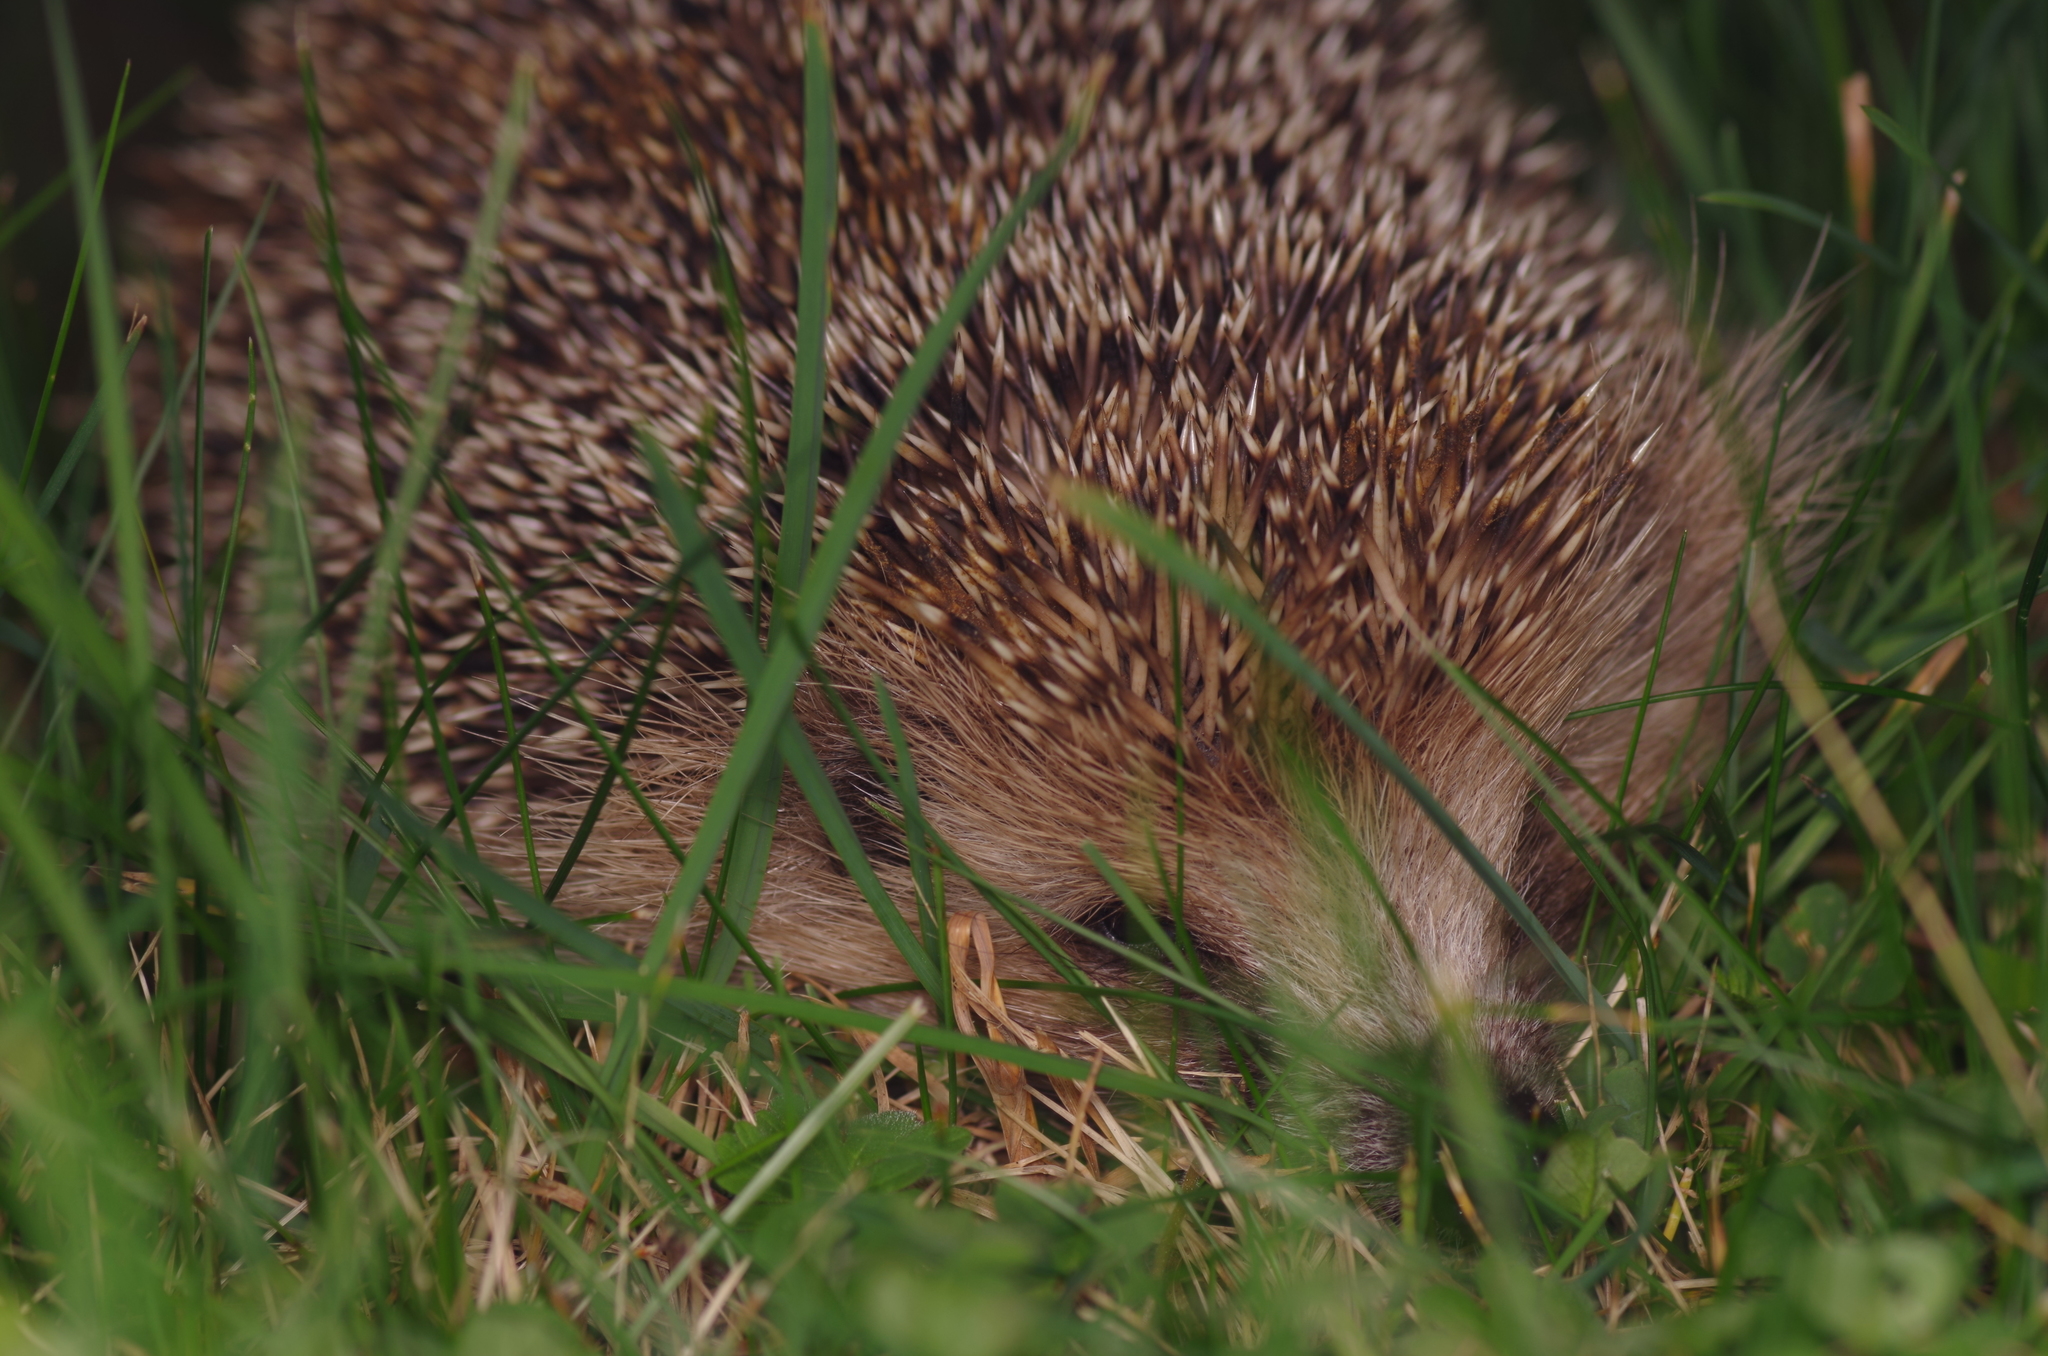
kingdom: Animalia
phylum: Chordata
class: Mammalia
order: Erinaceomorpha
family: Erinaceidae
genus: Erinaceus
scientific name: Erinaceus europaeus
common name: West european hedgehog
